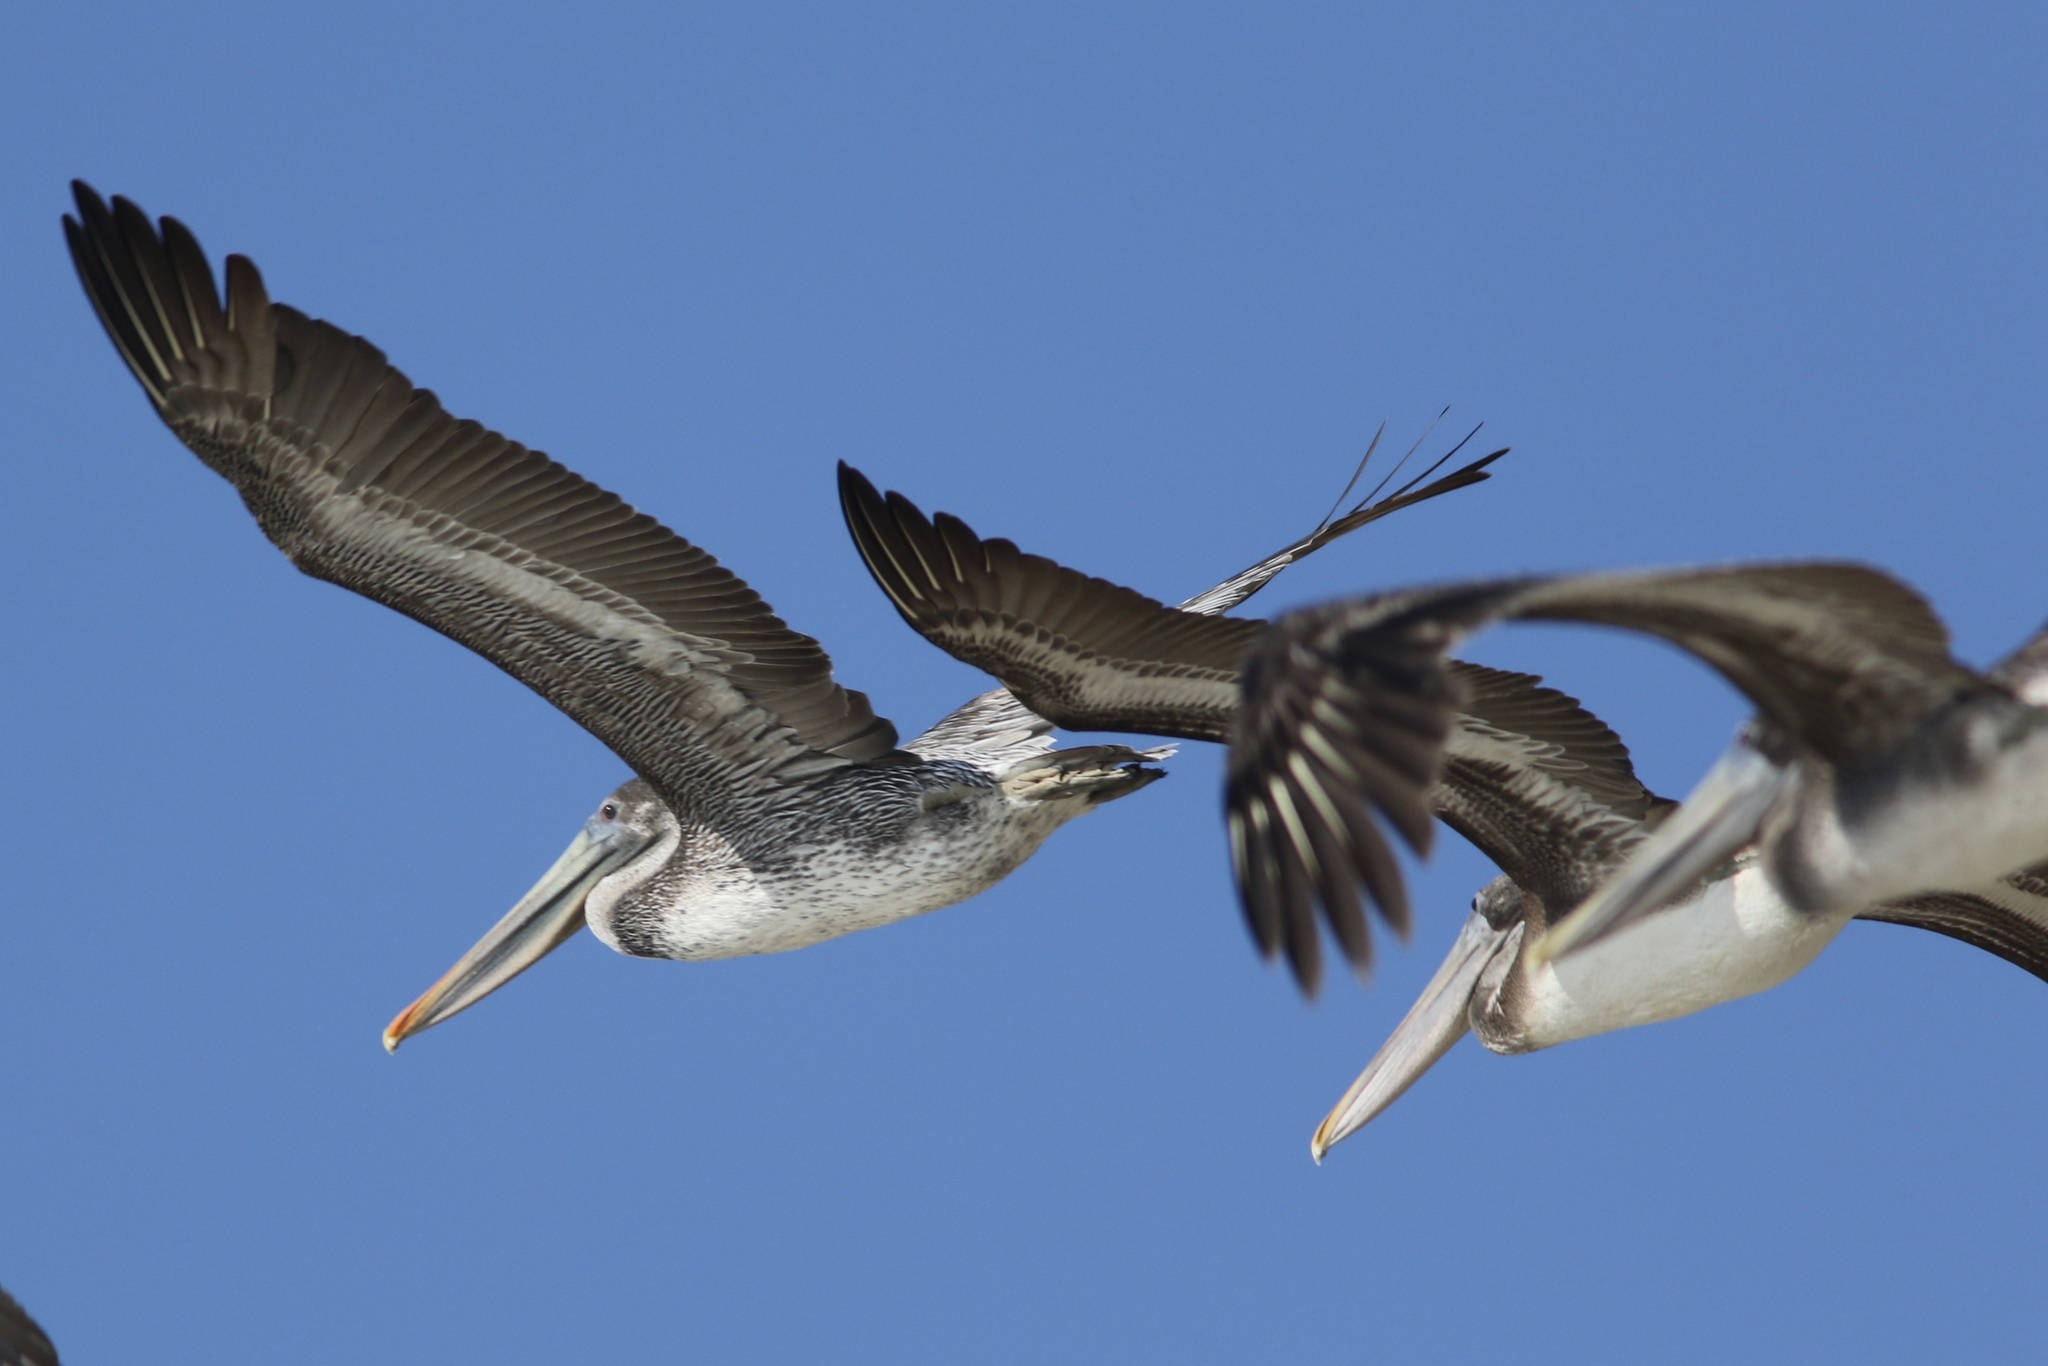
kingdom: Animalia
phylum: Chordata
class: Aves
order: Pelecaniformes
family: Pelecanidae
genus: Pelecanus
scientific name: Pelecanus occidentalis
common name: Brown pelican
